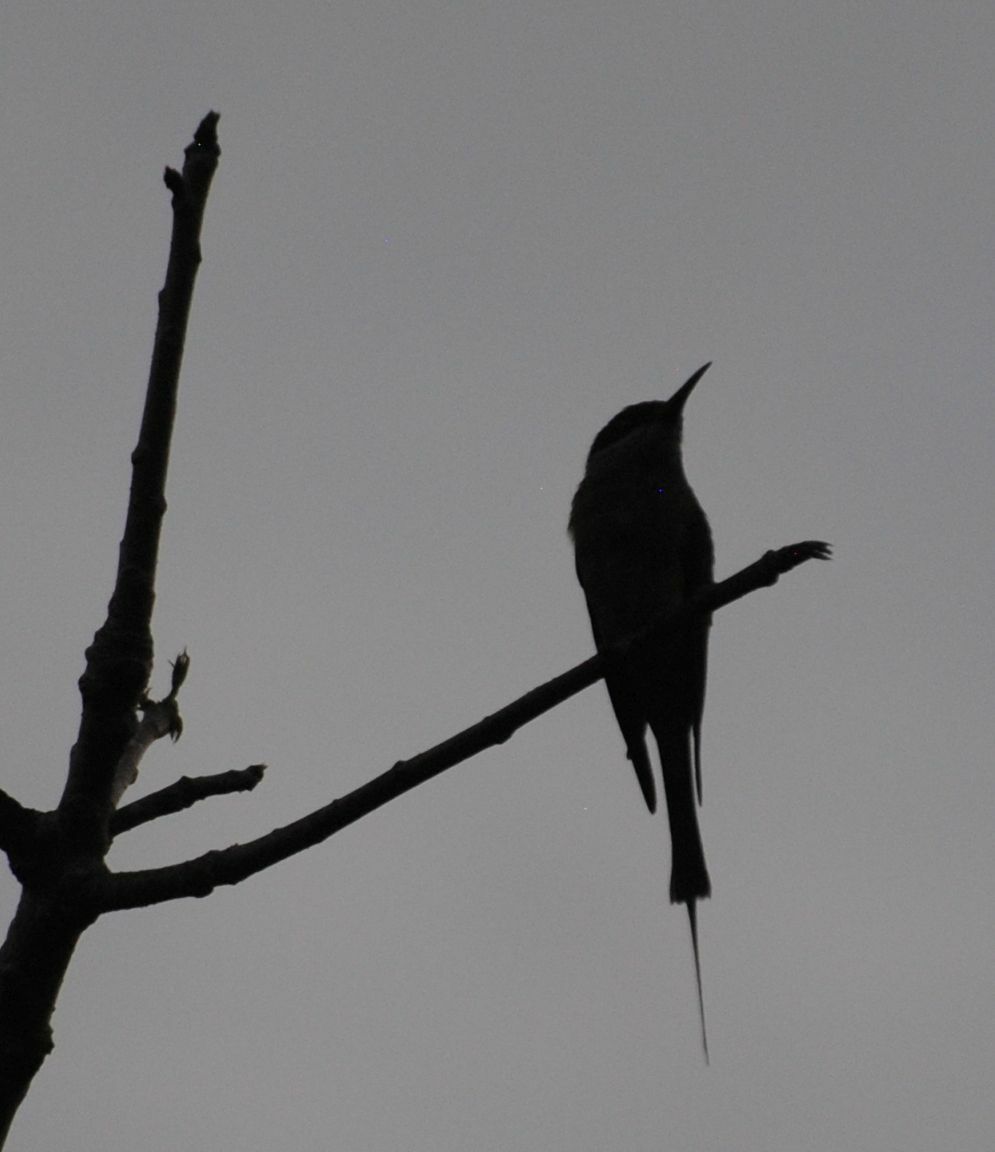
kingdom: Animalia
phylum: Chordata
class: Aves
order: Coraciiformes
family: Meropidae
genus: Merops
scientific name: Merops viridis
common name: Blue-throated bee-eater
